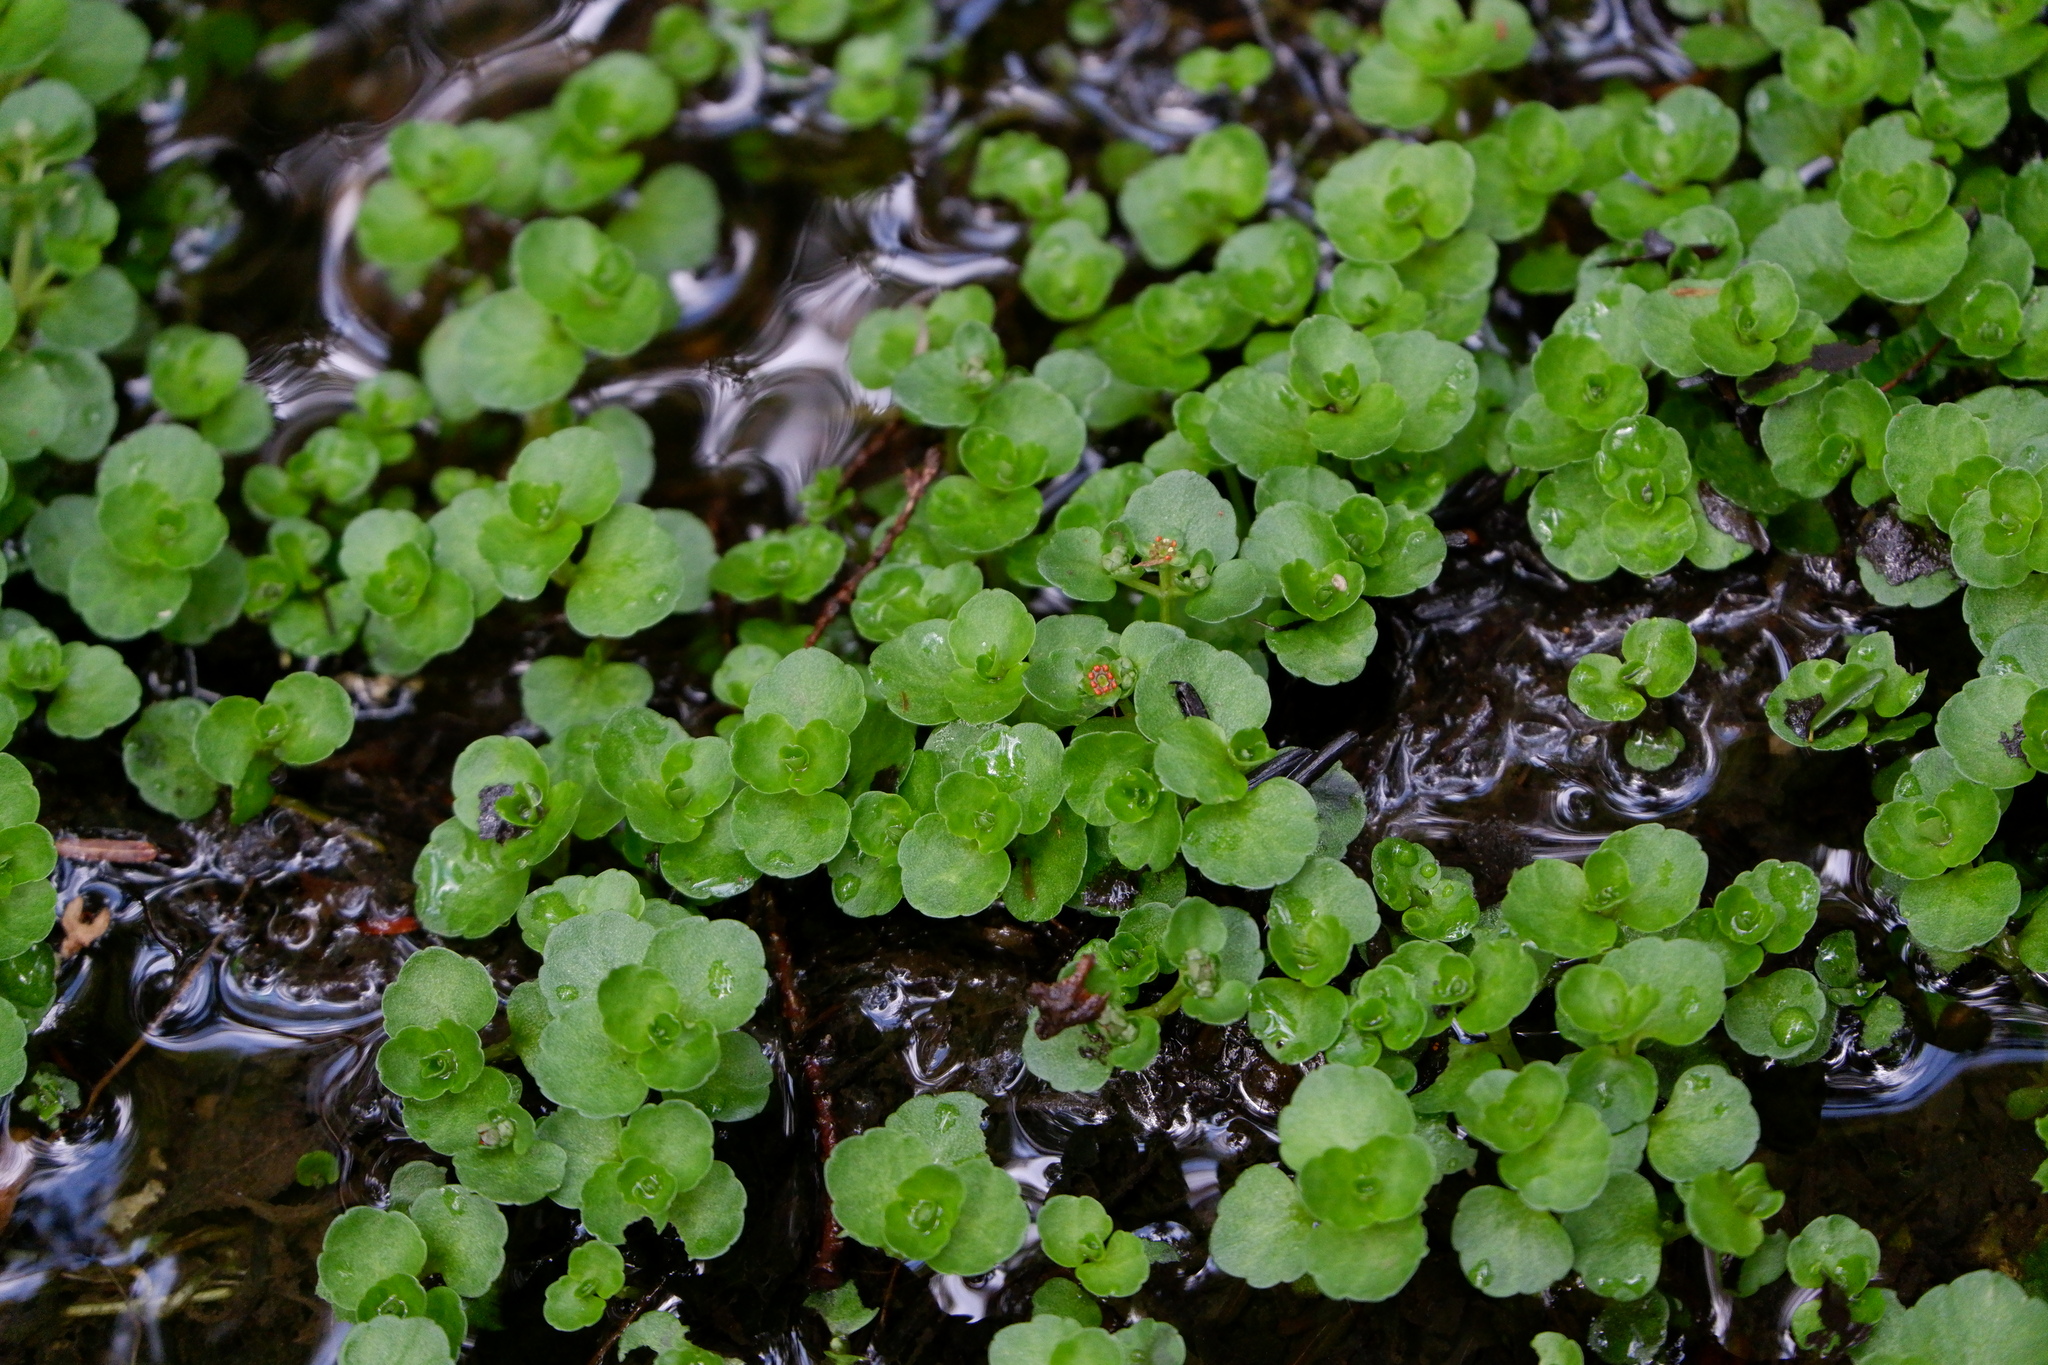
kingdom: Plantae
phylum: Tracheophyta
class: Magnoliopsida
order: Saxifragales
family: Saxifragaceae
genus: Chrysosplenium
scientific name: Chrysosplenium americanum
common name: American golden-saxifrage
